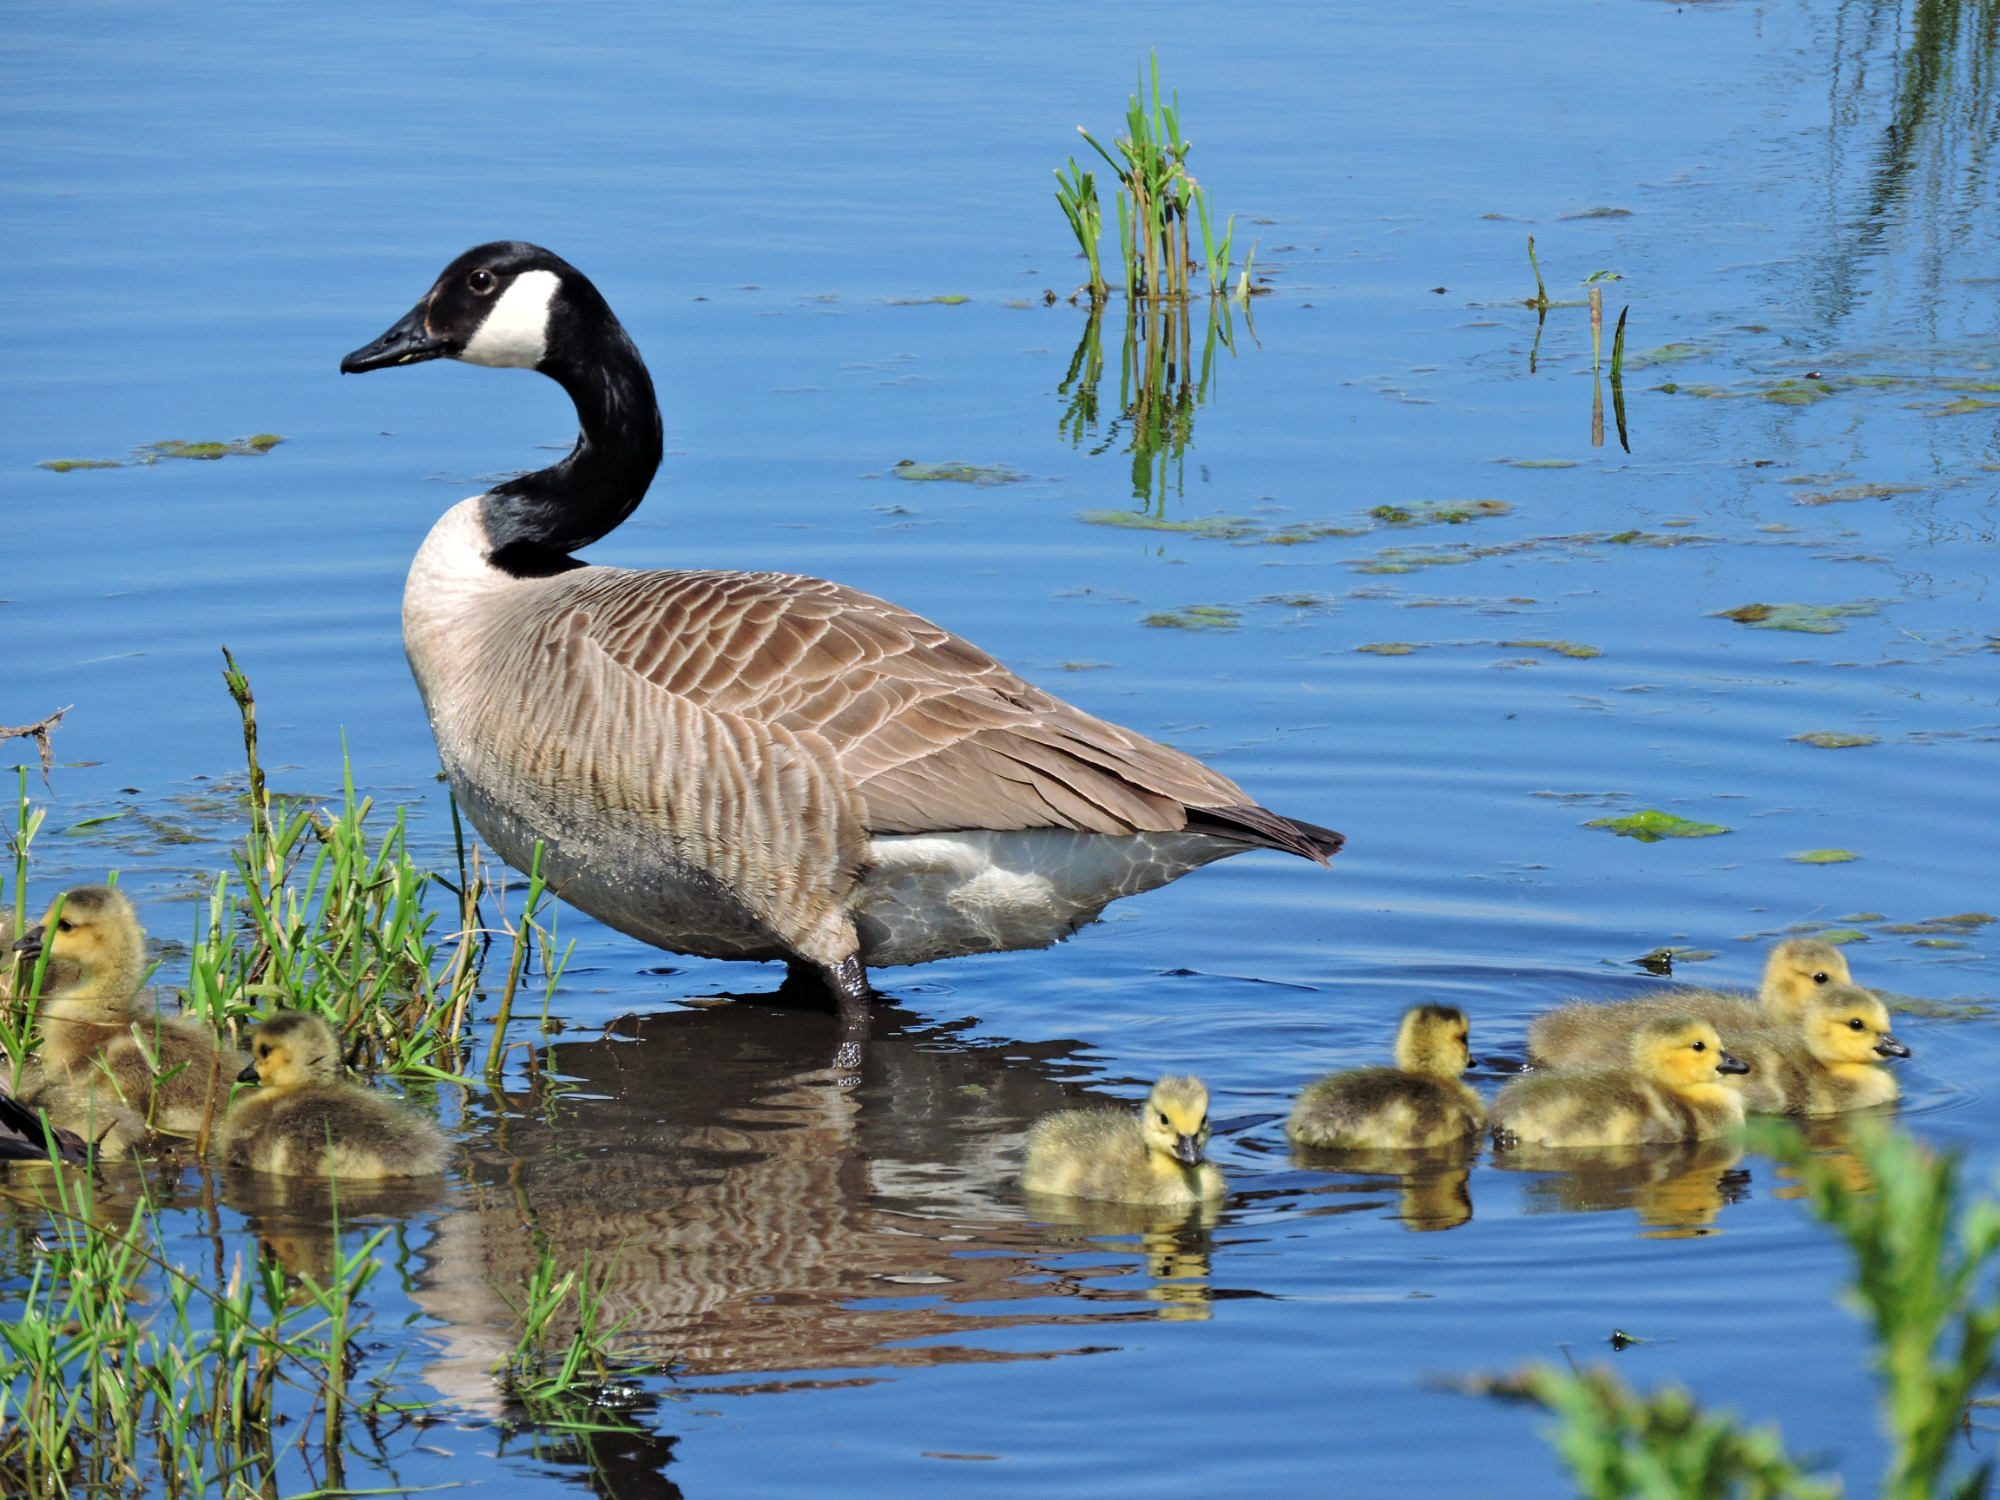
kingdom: Animalia
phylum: Chordata
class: Aves
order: Anseriformes
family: Anatidae
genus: Branta
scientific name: Branta canadensis
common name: Canada goose
